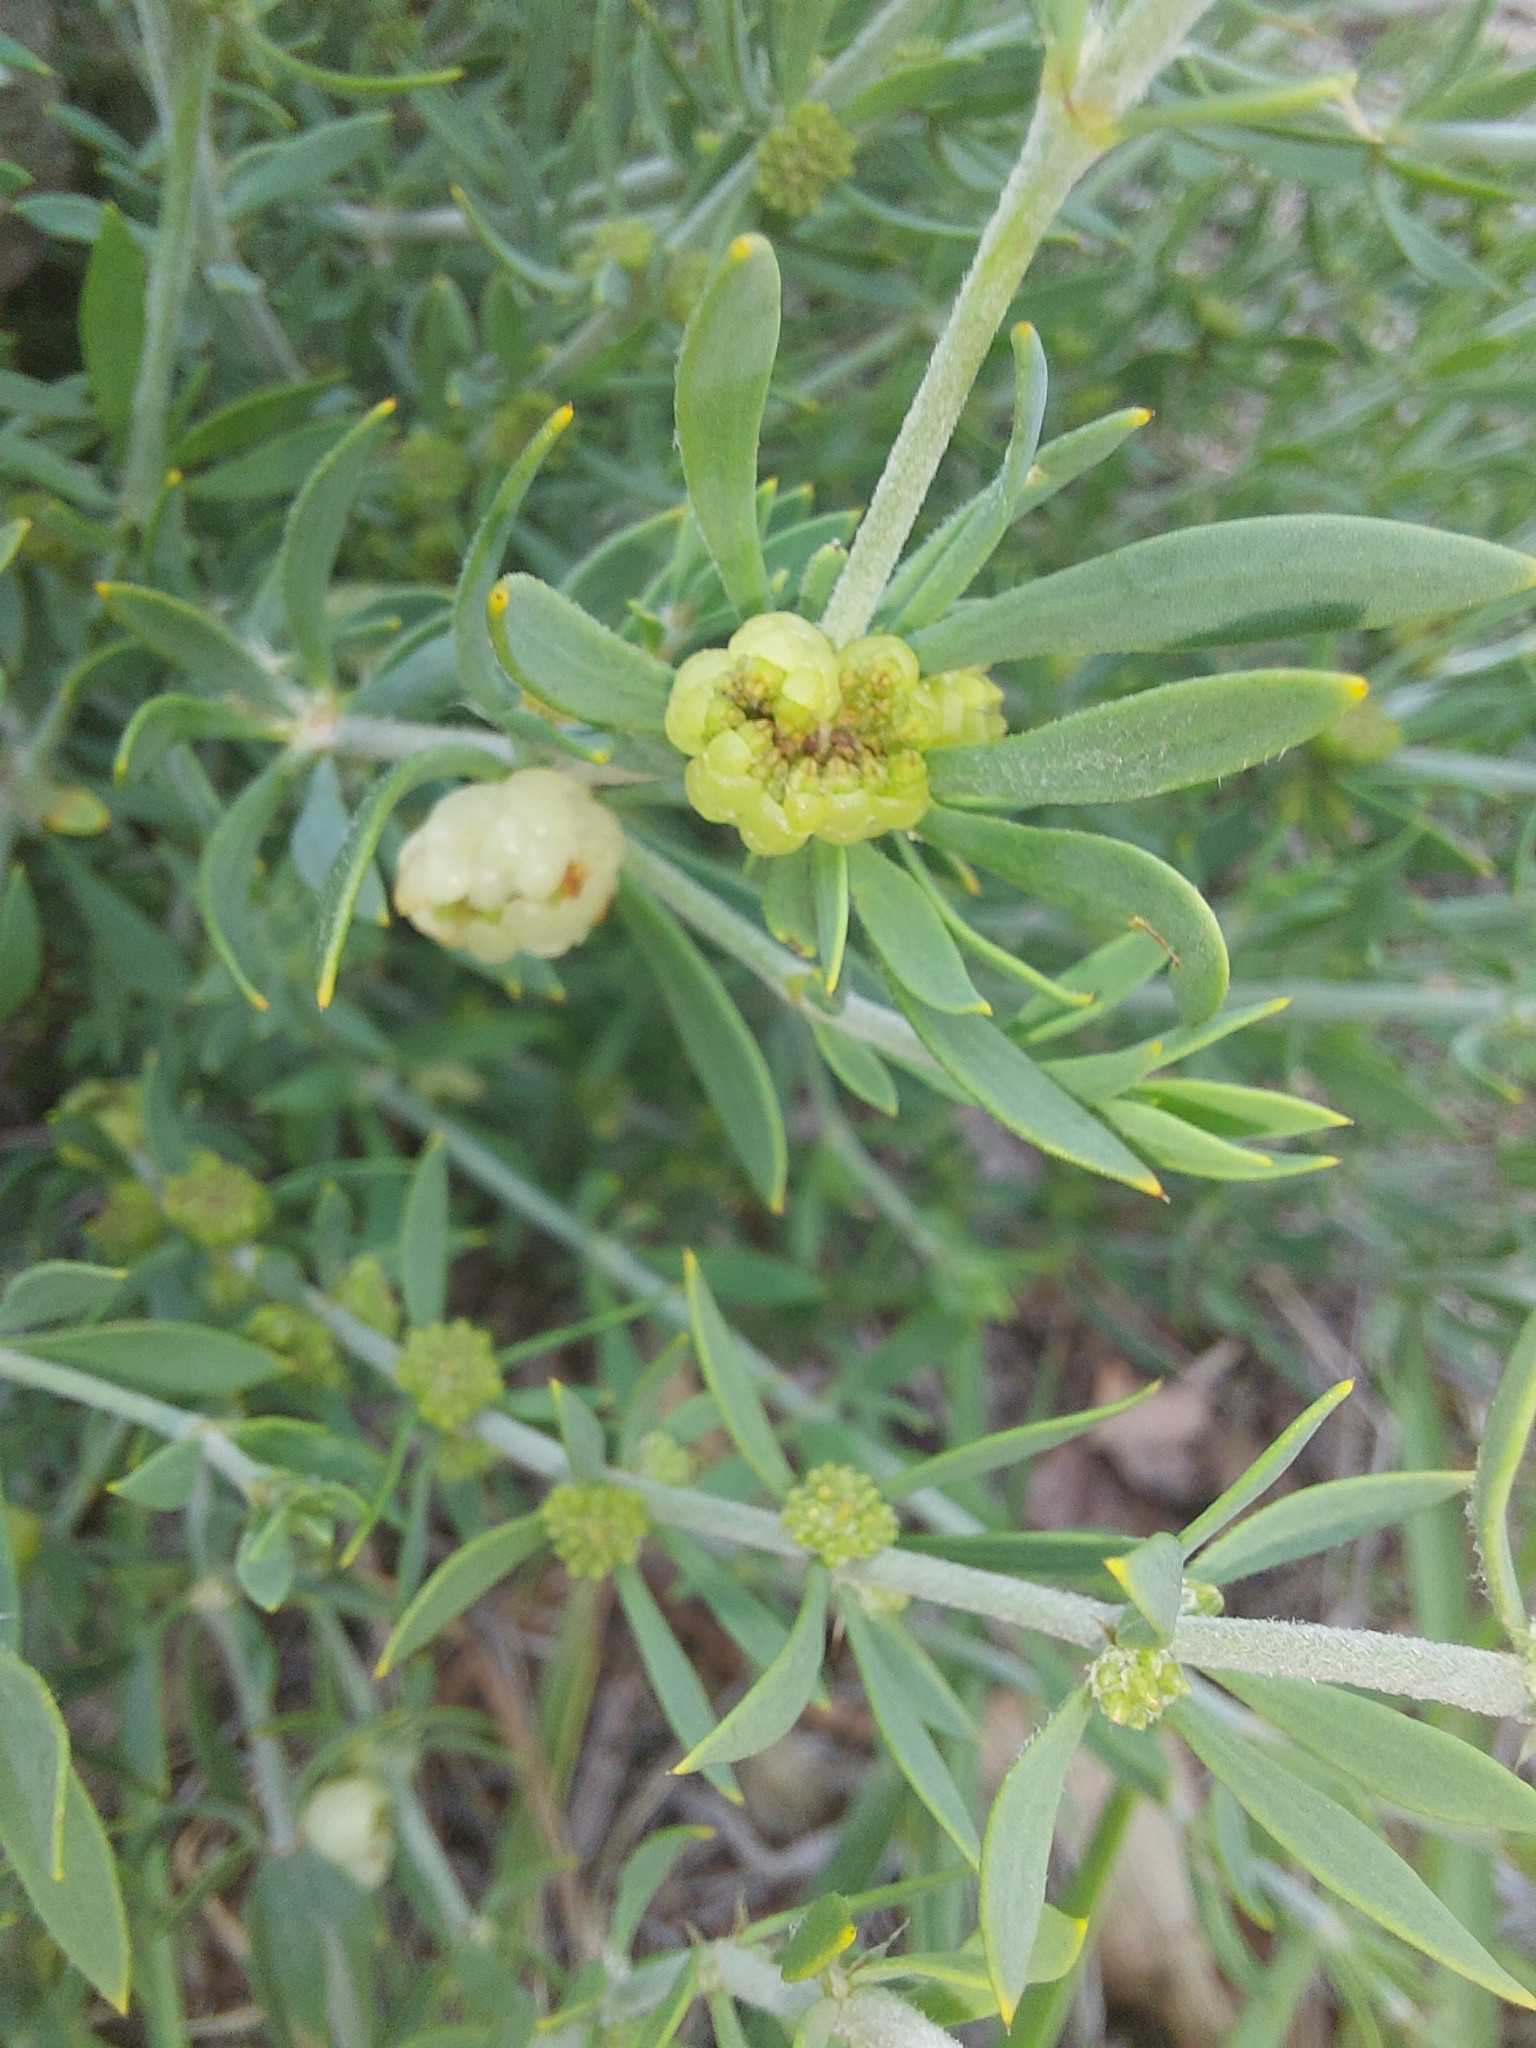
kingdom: Plantae
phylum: Tracheophyta
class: Magnoliopsida
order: Caryophyllales
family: Caryophyllaceae
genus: Pollichia
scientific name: Pollichia campestris
